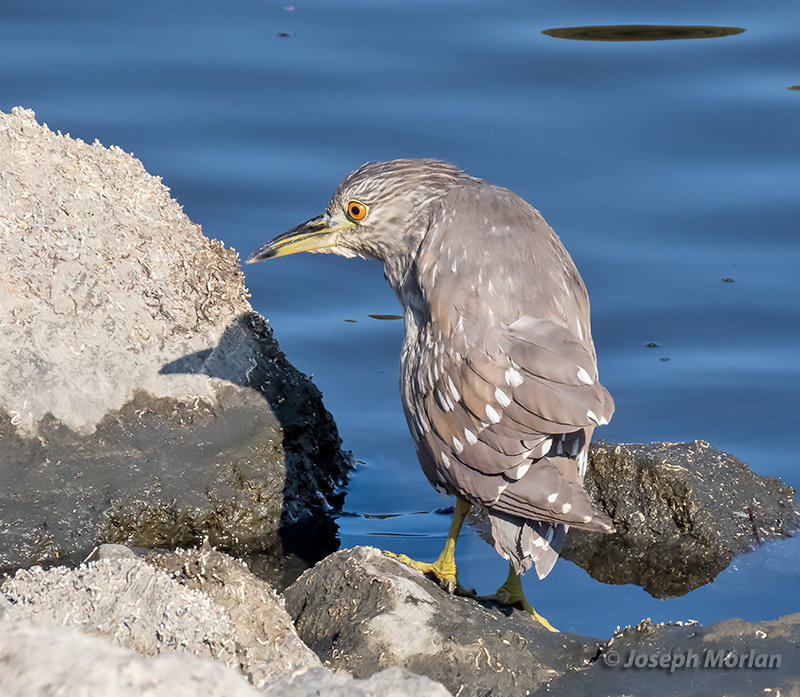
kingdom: Animalia
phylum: Chordata
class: Aves
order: Pelecaniformes
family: Ardeidae
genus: Nycticorax
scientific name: Nycticorax nycticorax
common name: Black-crowned night heron
